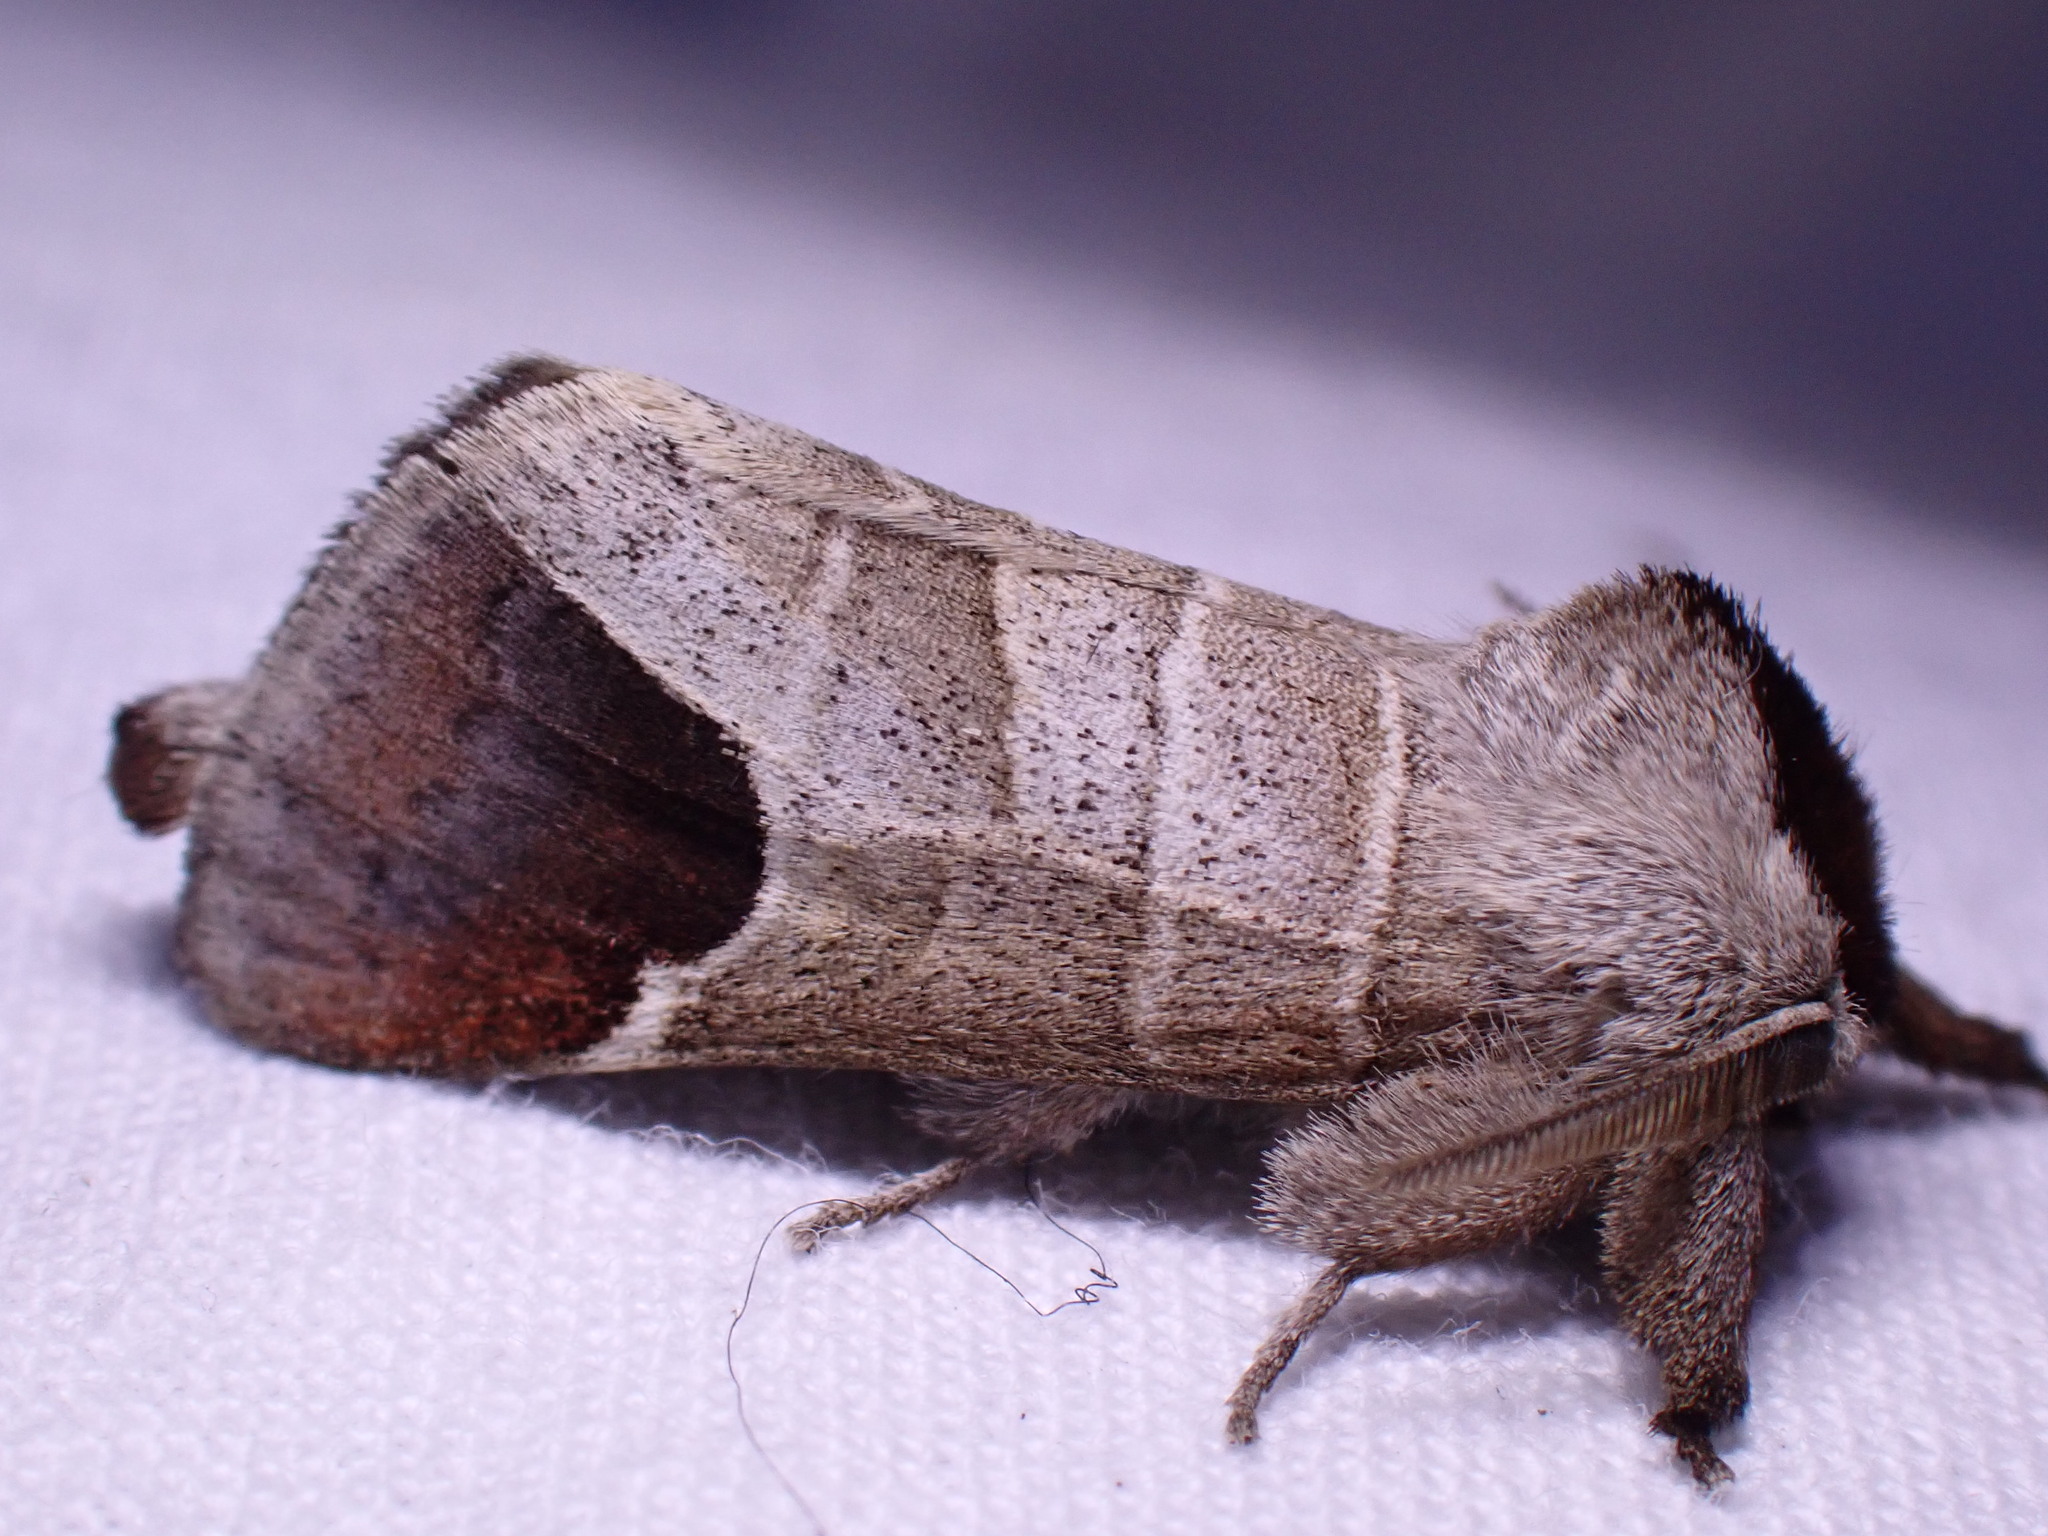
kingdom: Animalia
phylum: Arthropoda
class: Insecta
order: Lepidoptera
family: Notodontidae
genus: Clostera
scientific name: Clostera curtula
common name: Chocolate-tip
